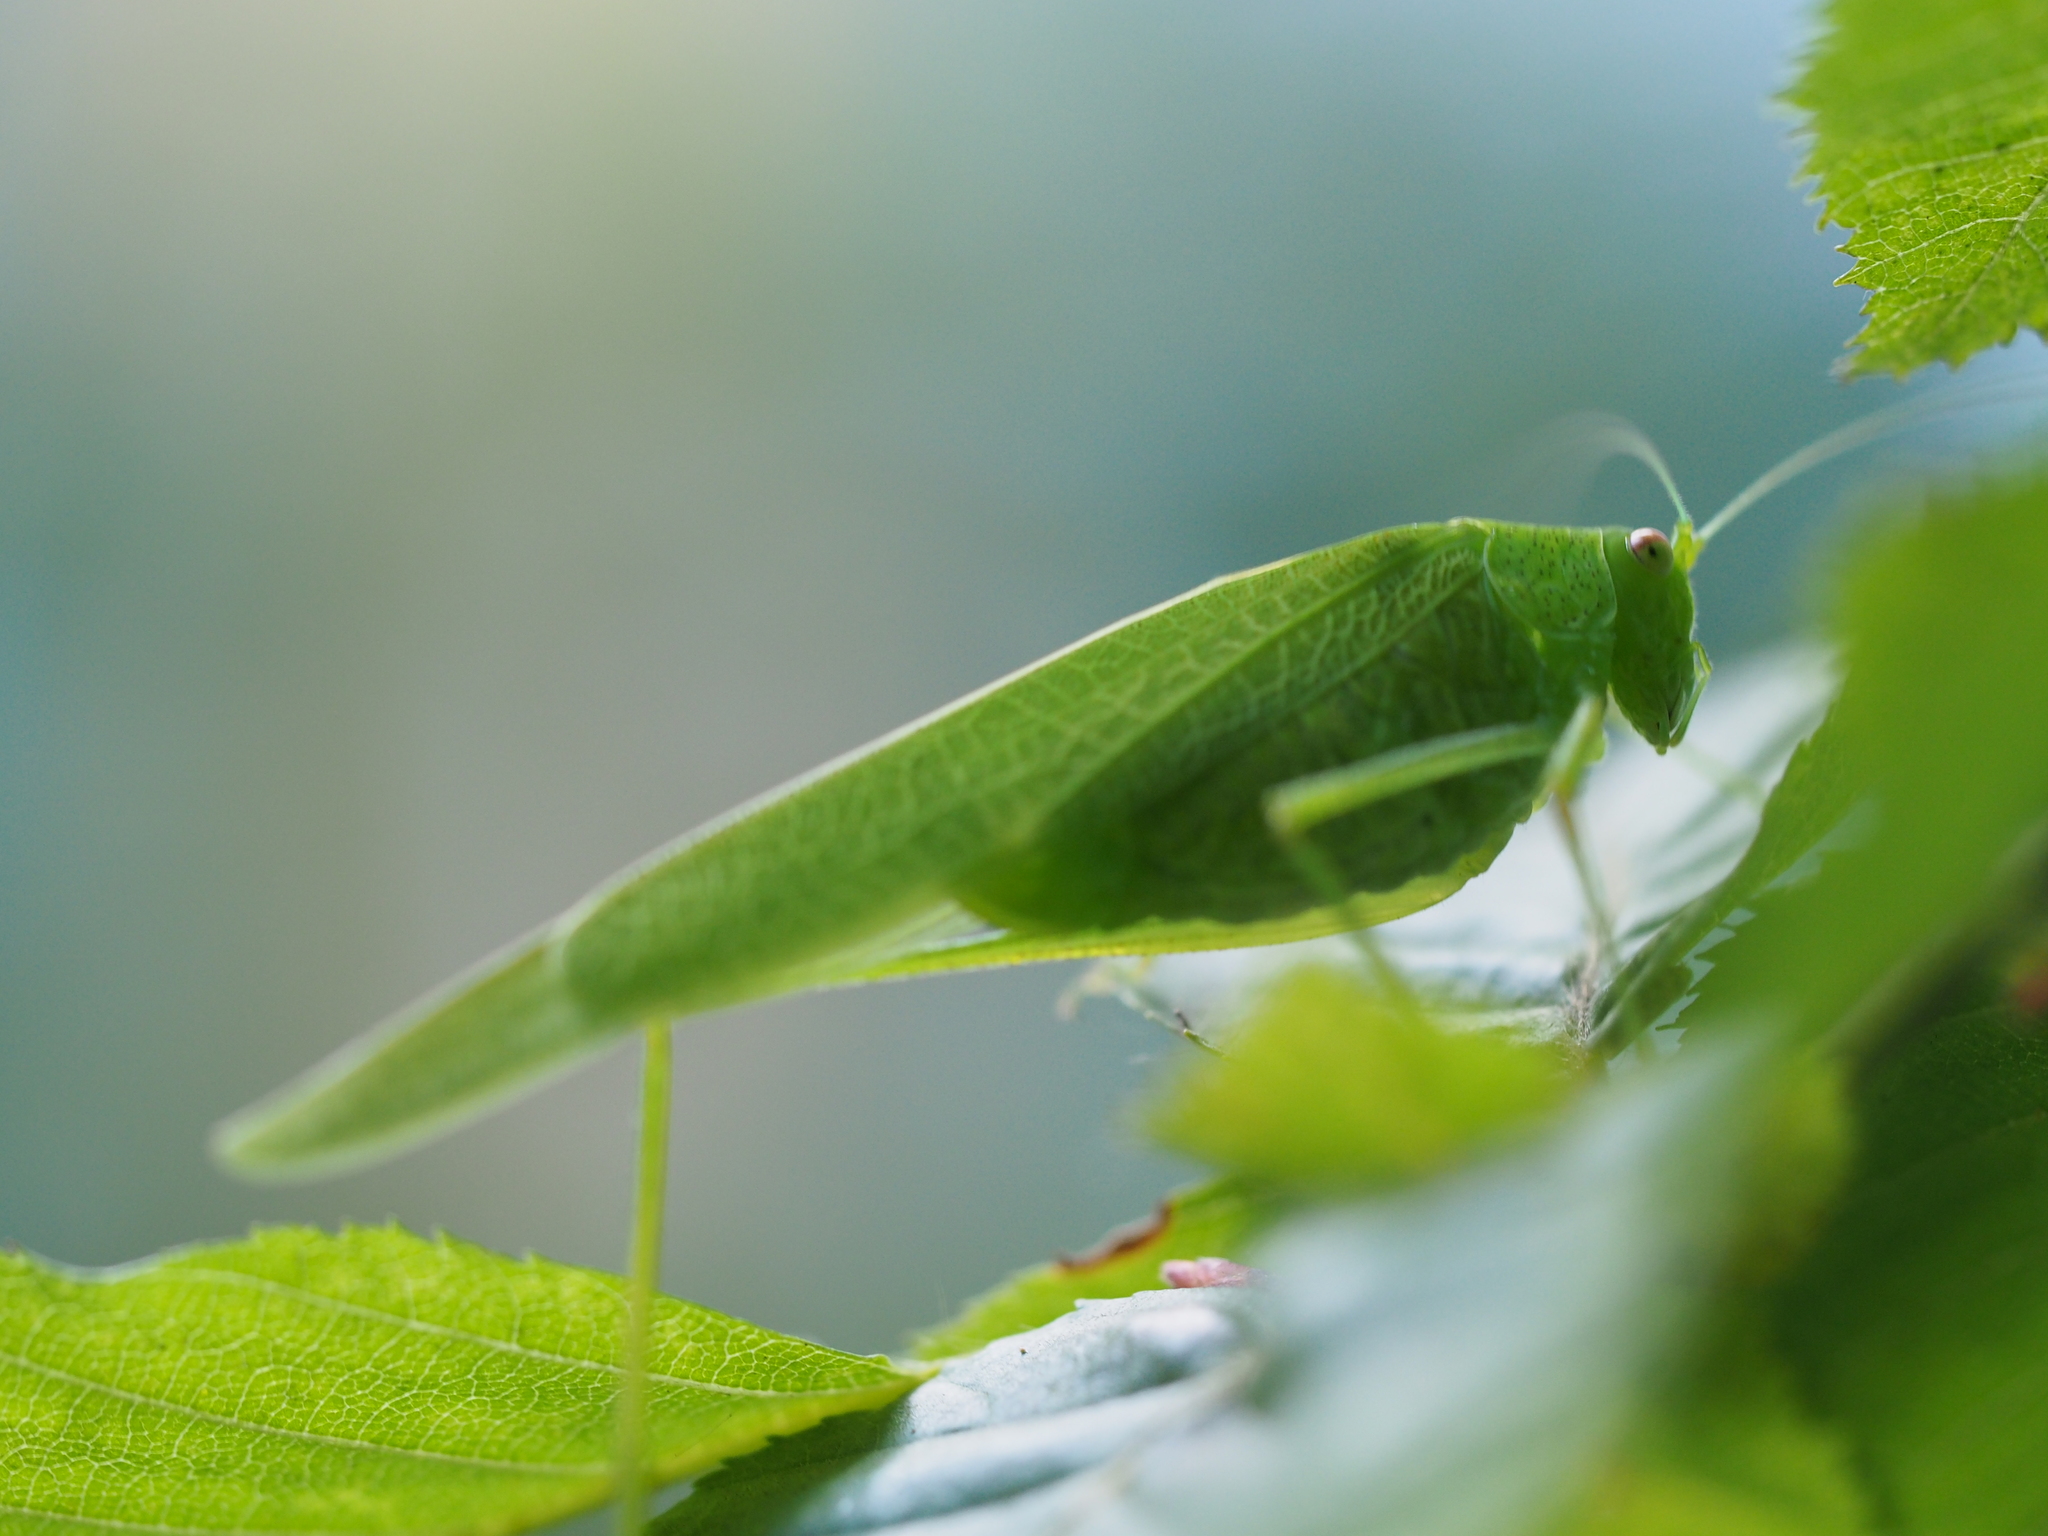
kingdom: Animalia
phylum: Arthropoda
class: Insecta
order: Orthoptera
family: Tettigoniidae
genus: Phaneroptera
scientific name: Phaneroptera nana
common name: Southern sickle bush-cricket
